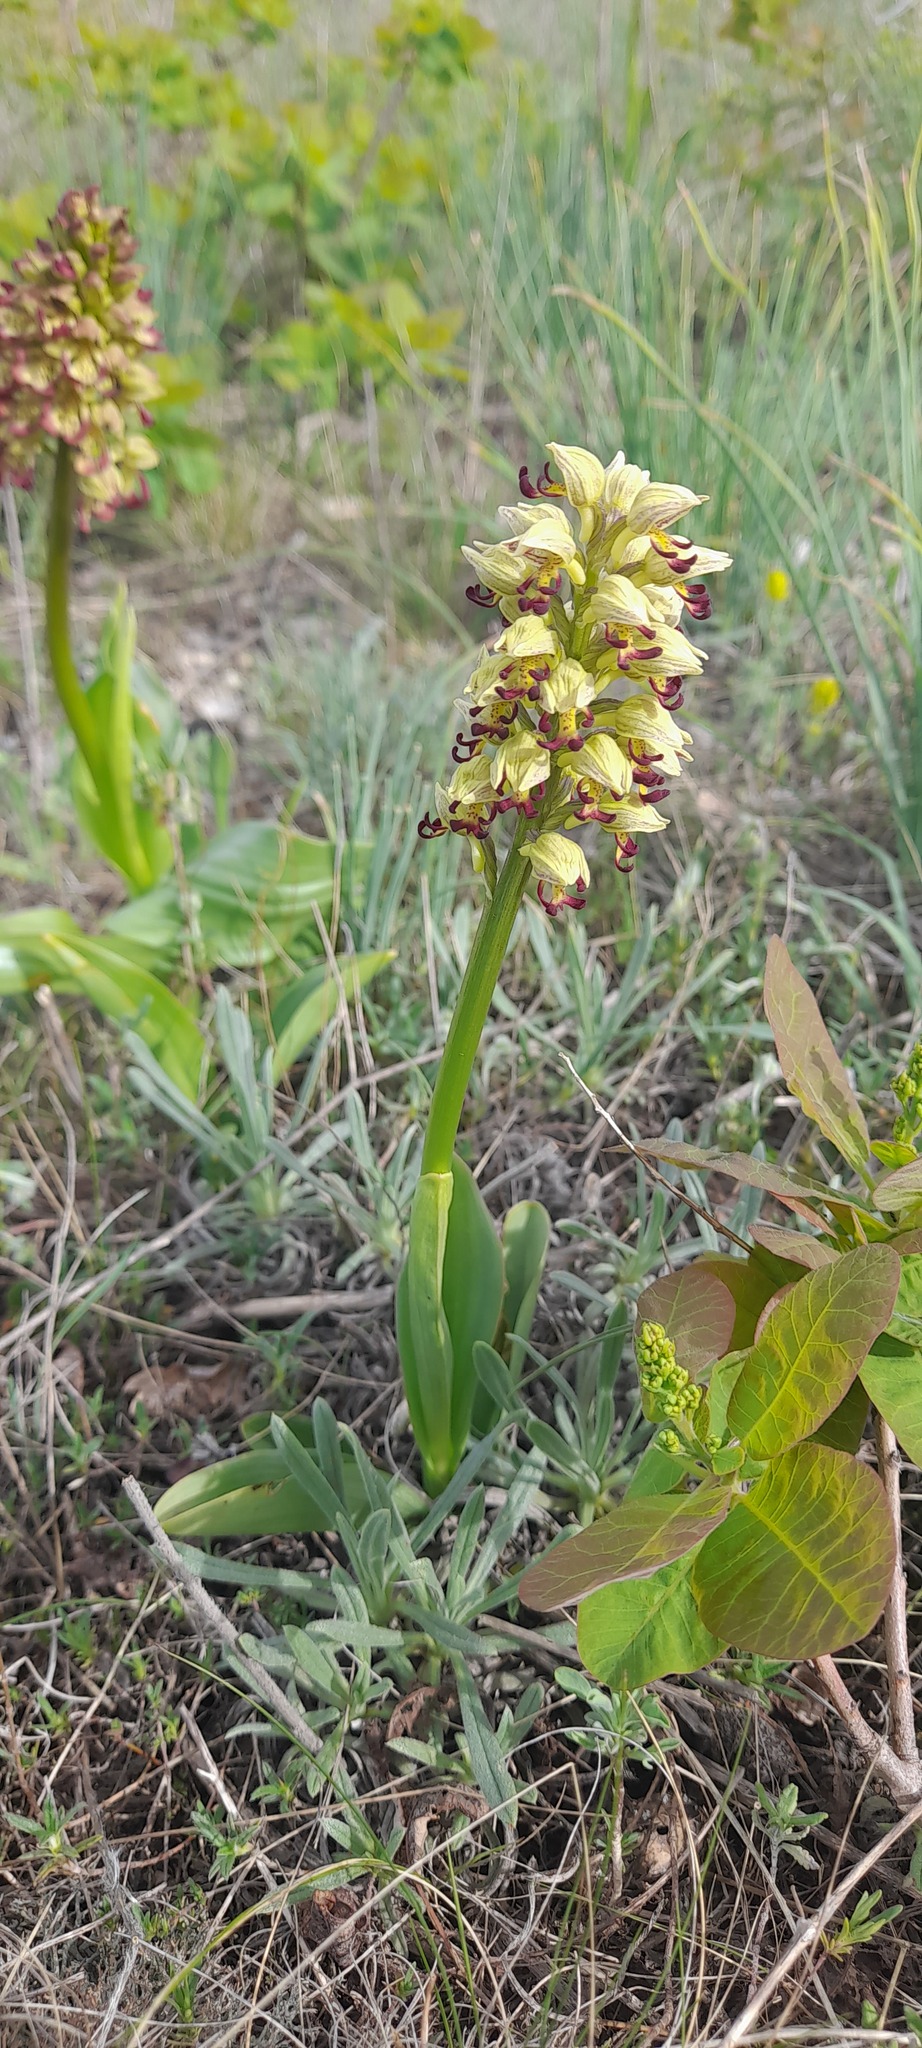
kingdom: Plantae
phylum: Tracheophyta
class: Liliopsida
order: Asparagales
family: Orchidaceae
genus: Orchis
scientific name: Orchis calliantha
